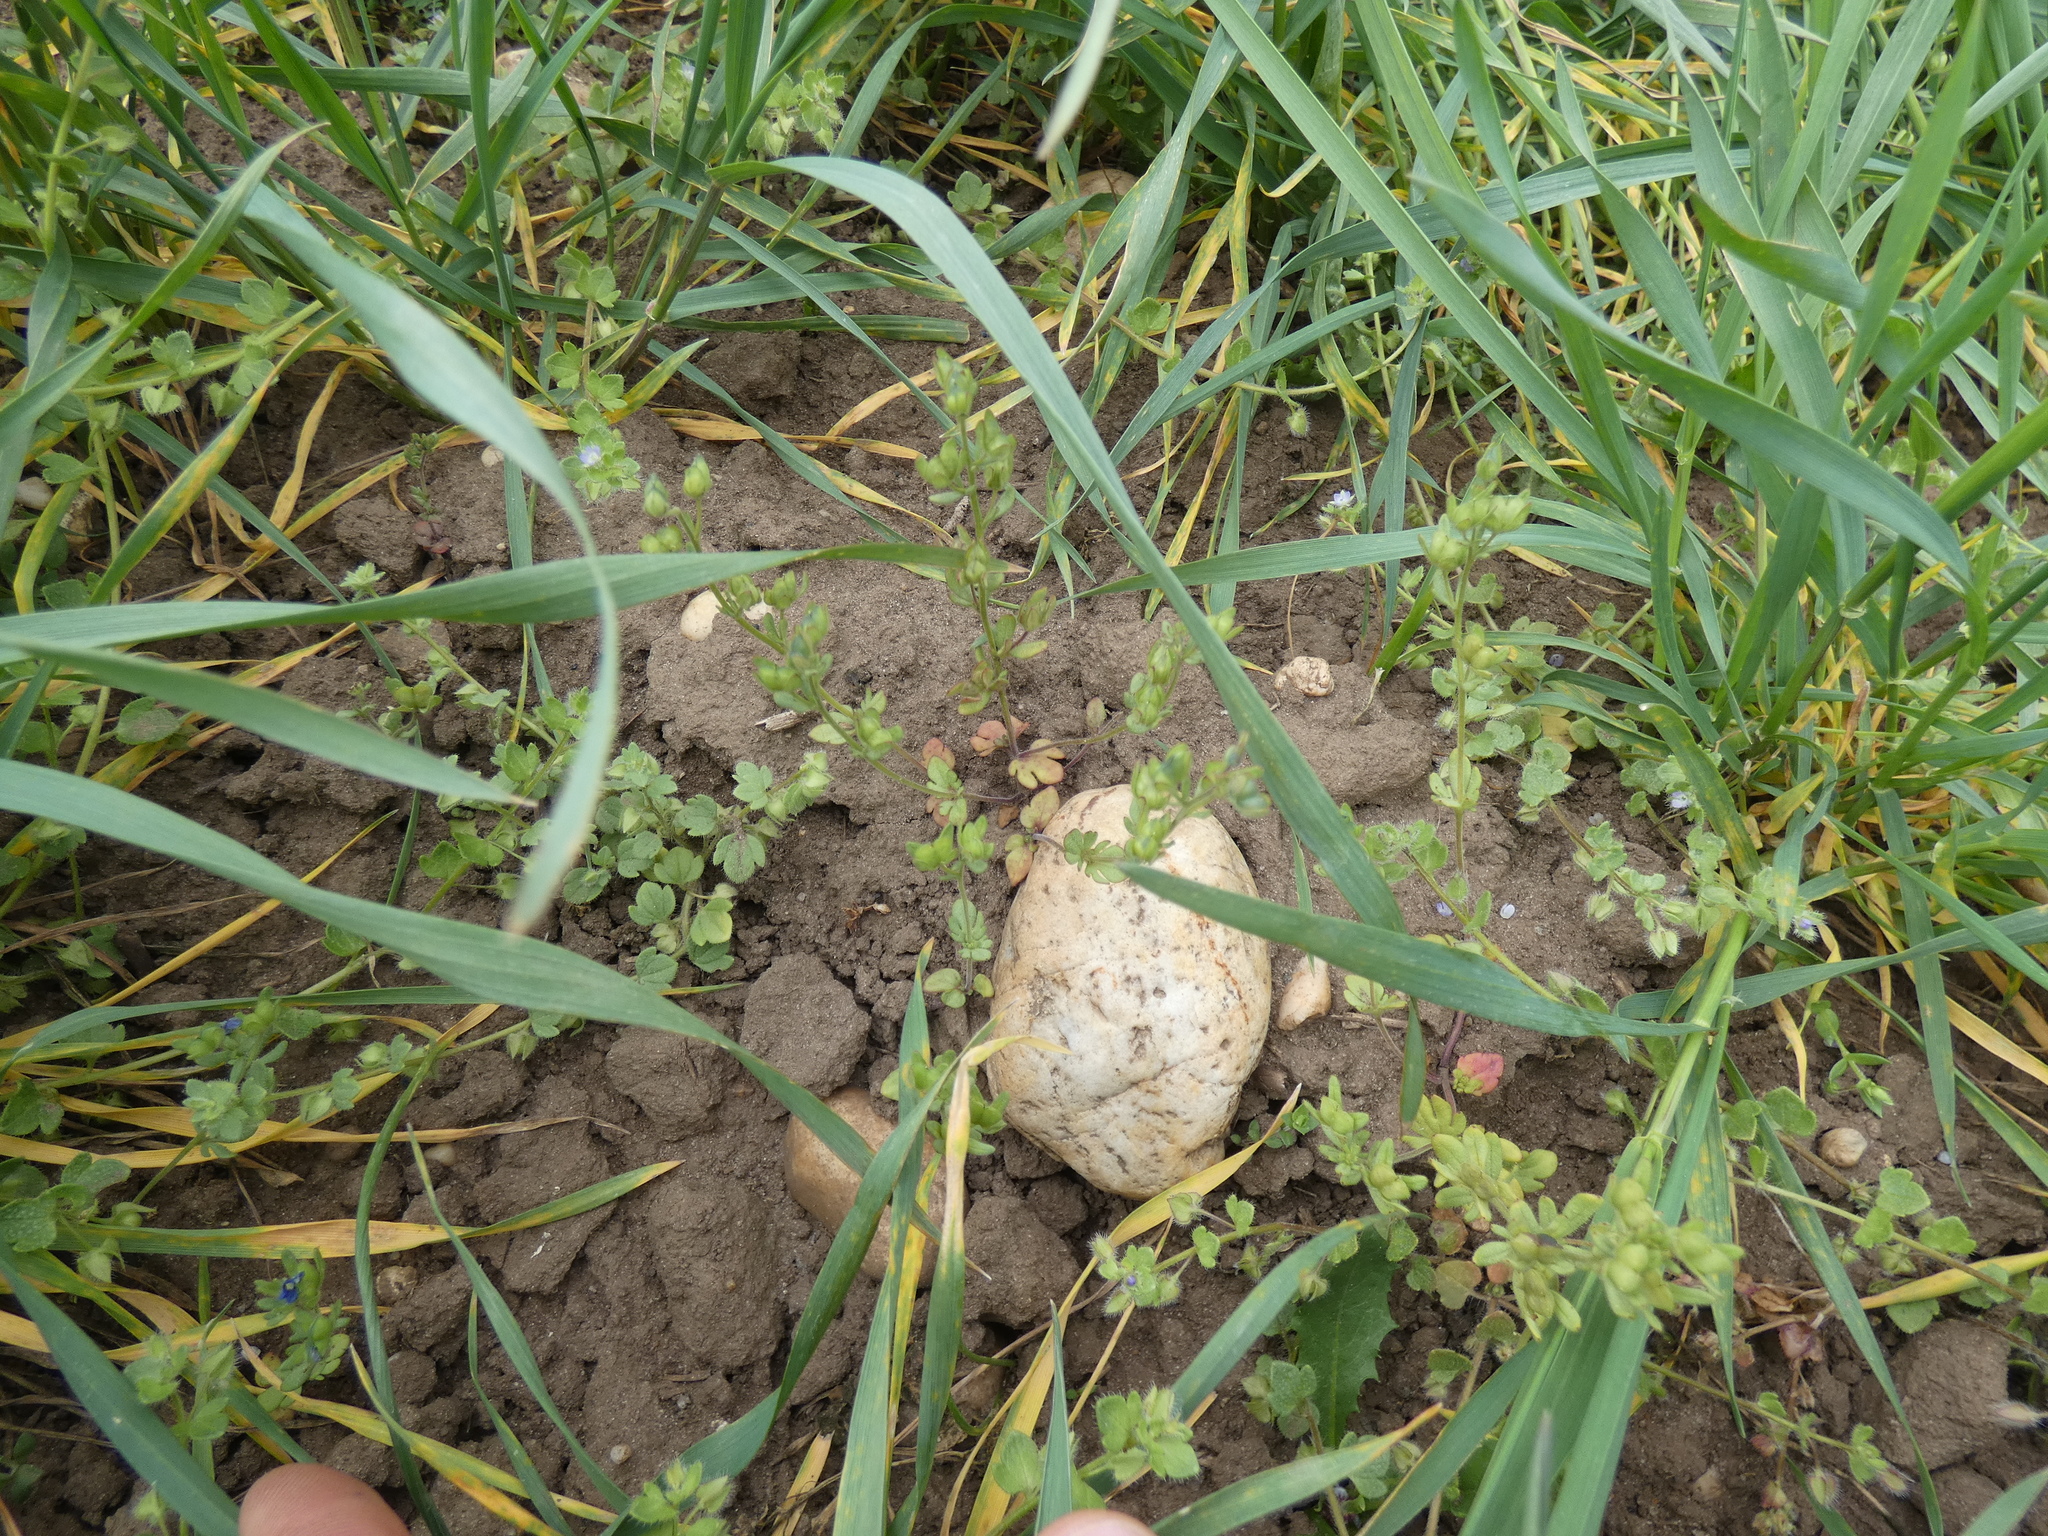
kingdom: Plantae
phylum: Tracheophyta
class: Magnoliopsida
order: Lamiales
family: Plantaginaceae
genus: Veronica
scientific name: Veronica triphyllos
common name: Fingered speedwell
